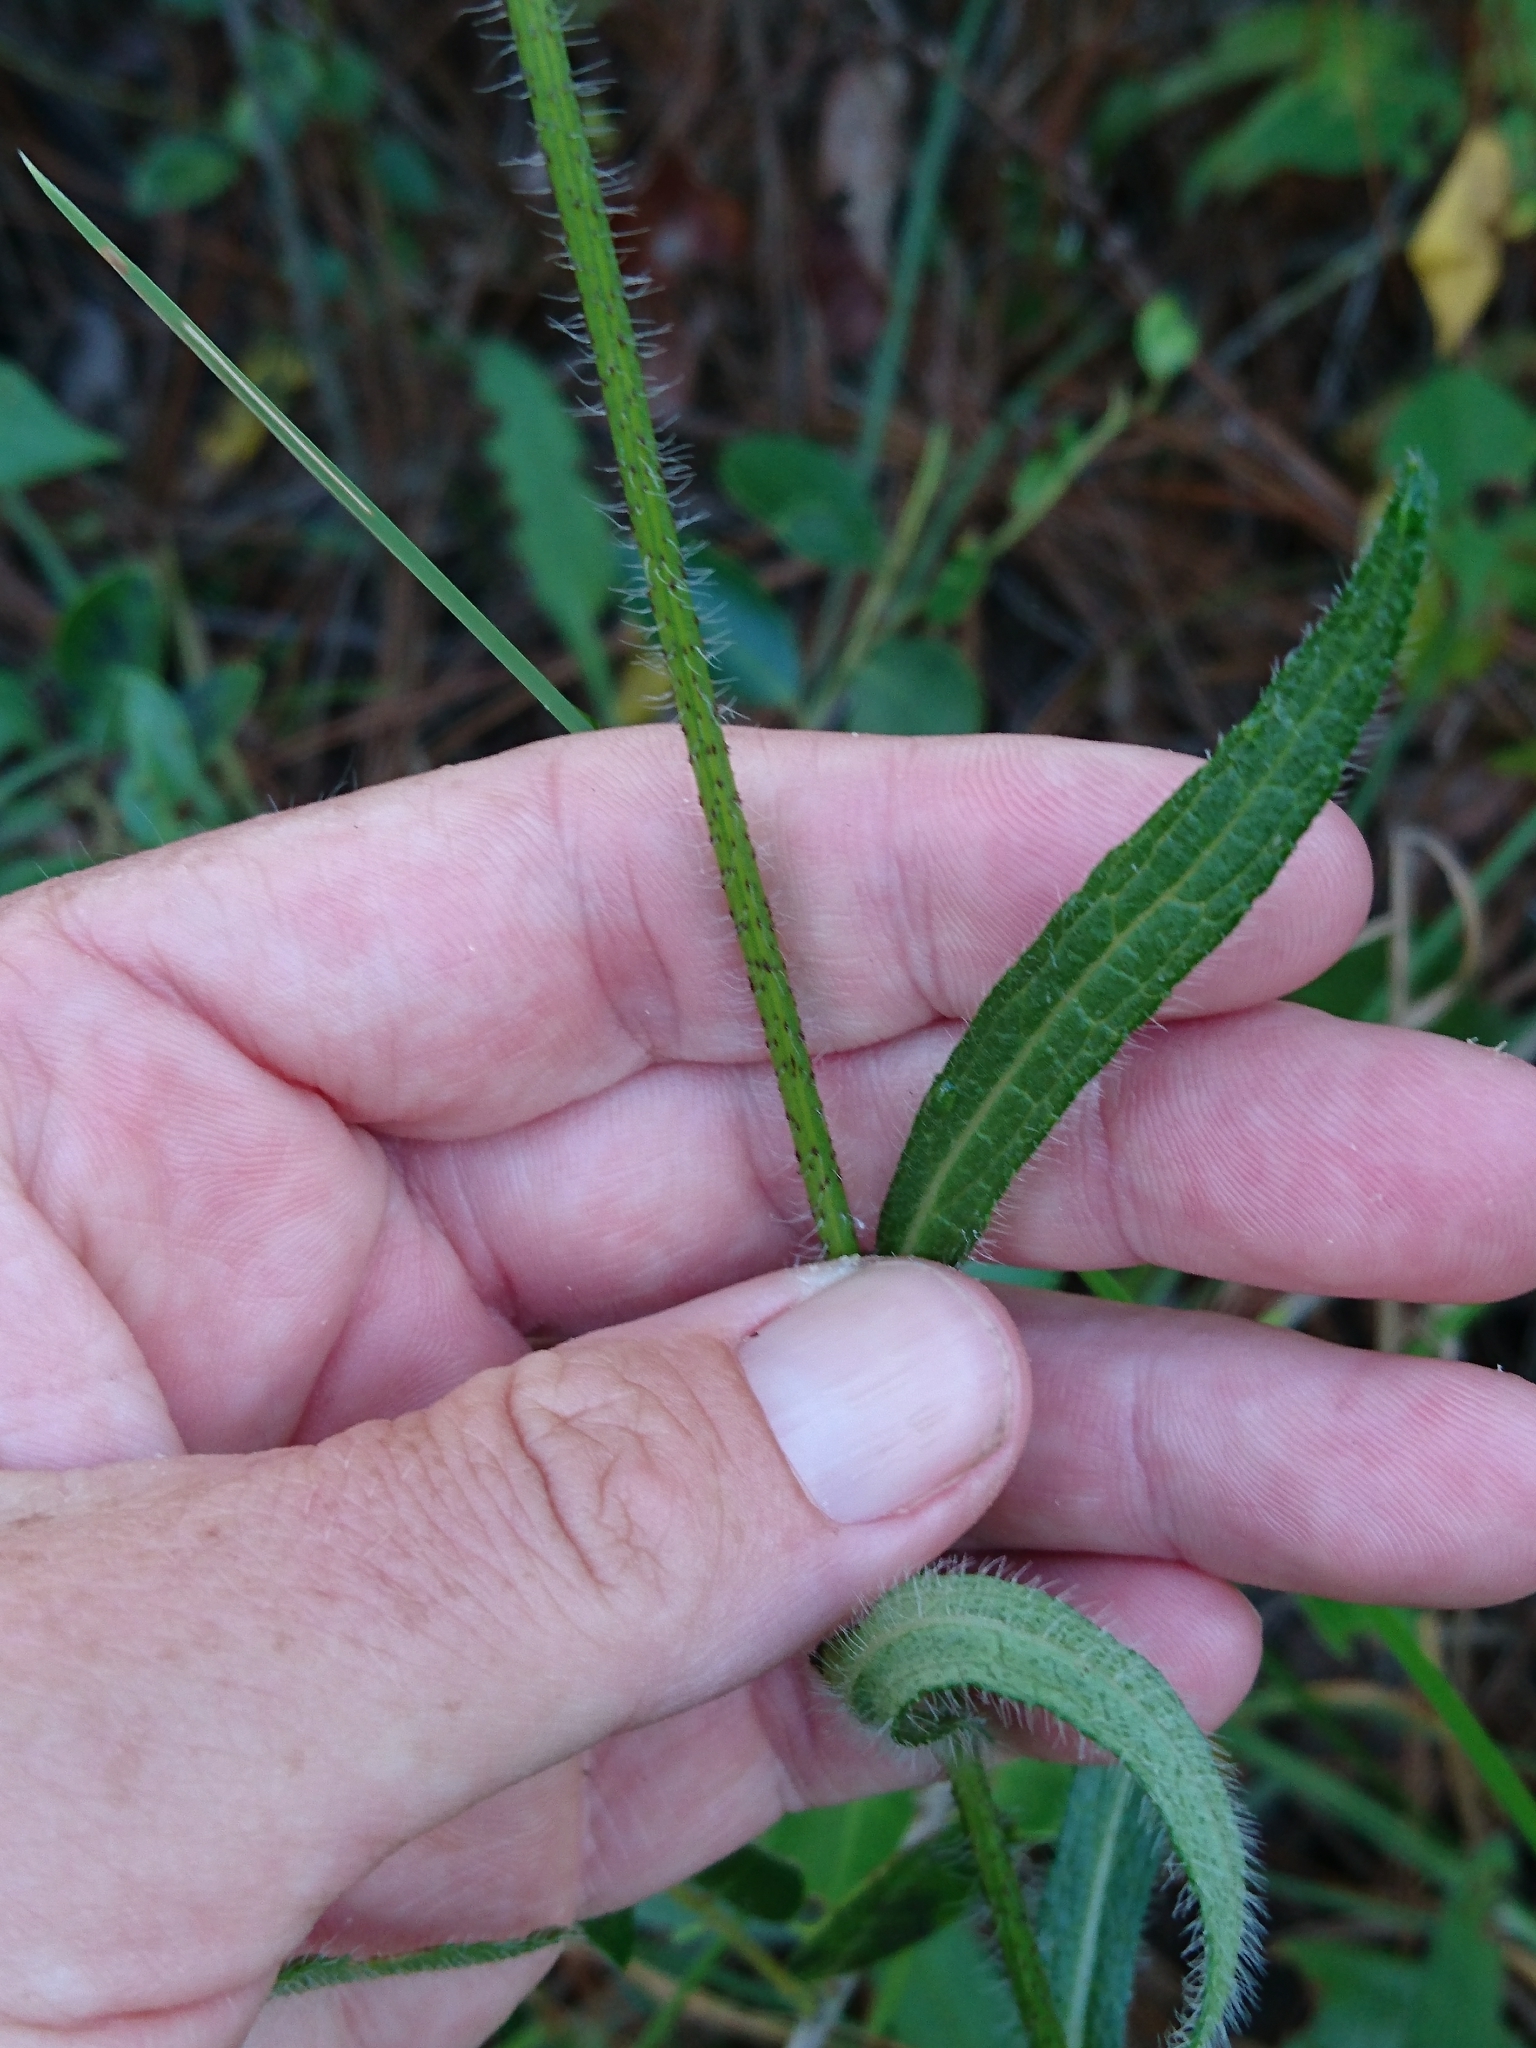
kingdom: Plantae
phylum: Tracheophyta
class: Magnoliopsida
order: Asterales
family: Asteraceae
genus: Rudbeckia
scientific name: Rudbeckia hirta
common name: Black-eyed-susan
